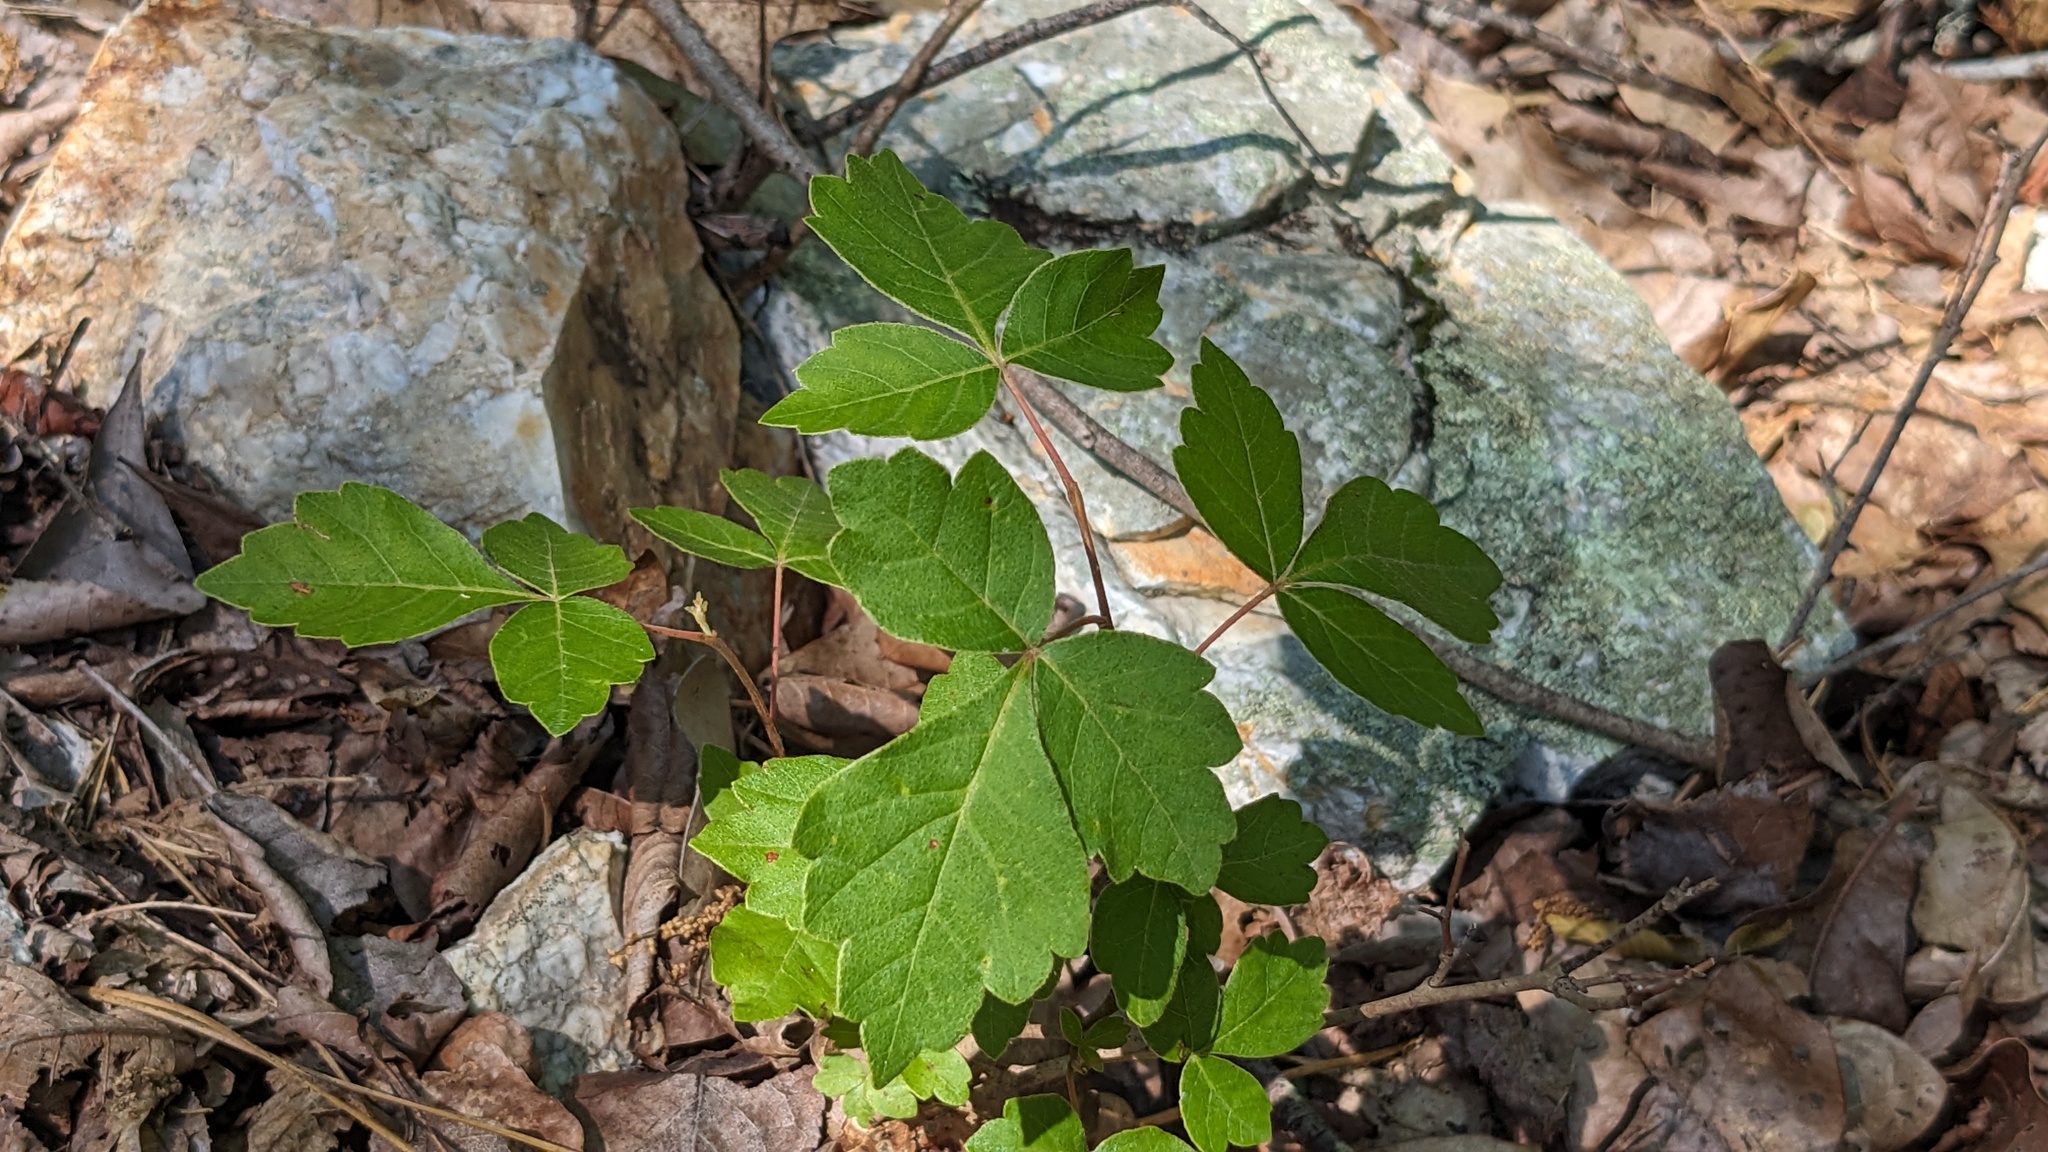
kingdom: Plantae
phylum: Tracheophyta
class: Magnoliopsida
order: Sapindales
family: Anacardiaceae
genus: Rhus
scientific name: Rhus aromatica
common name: Aromatic sumac
